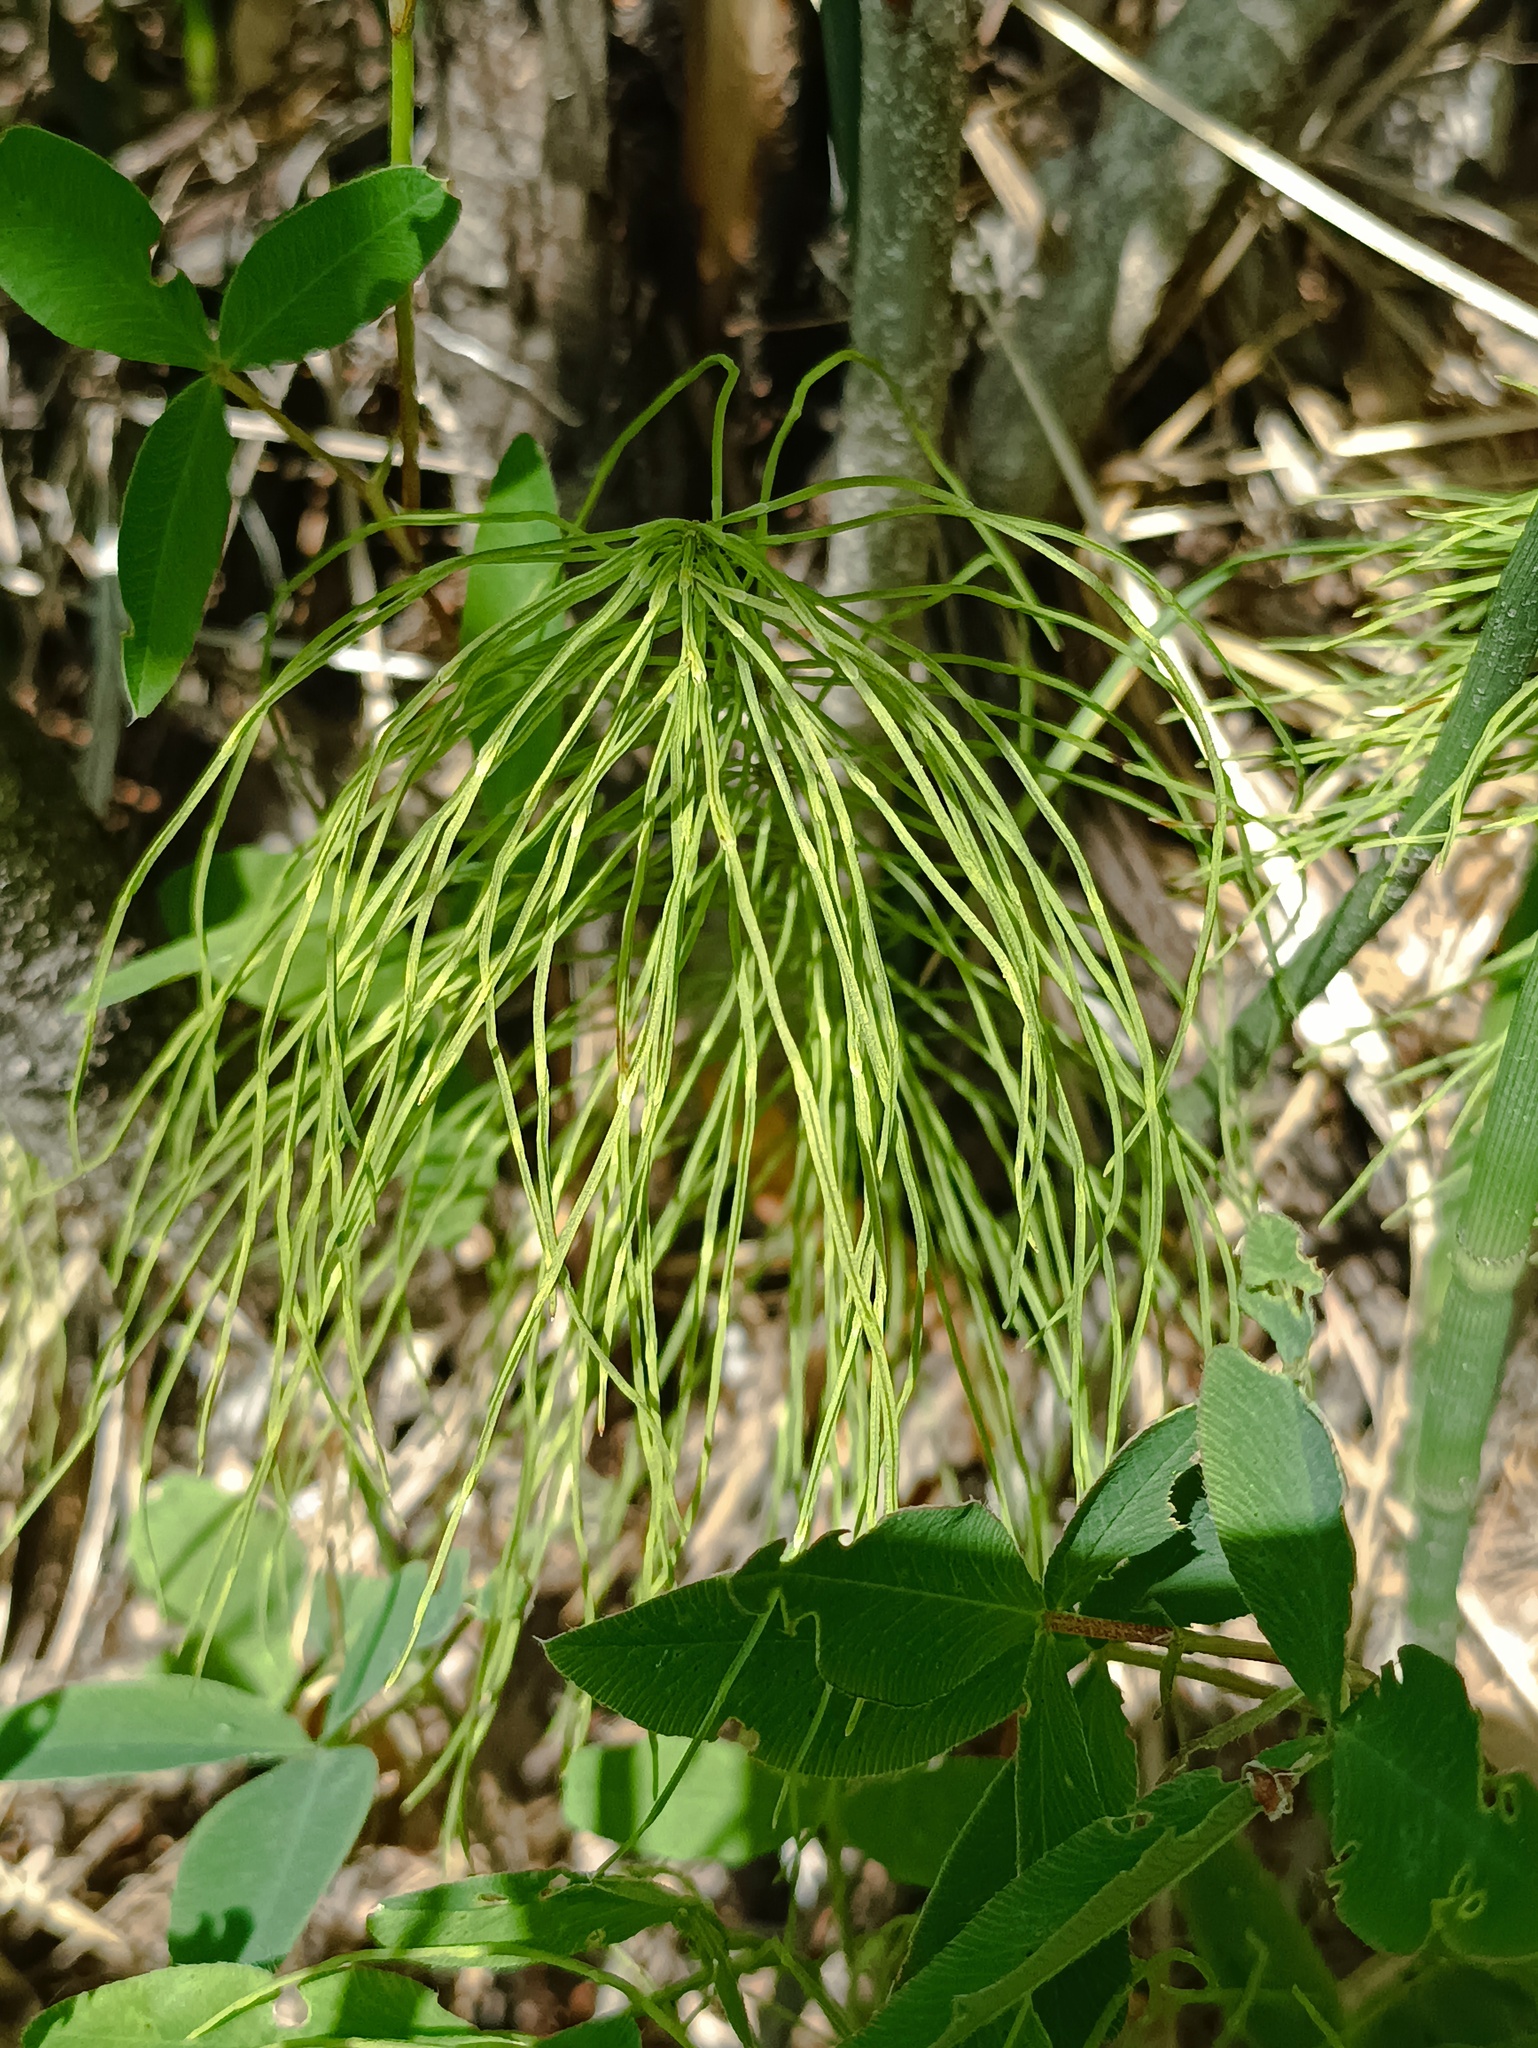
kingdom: Plantae
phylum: Tracheophyta
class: Polypodiopsida
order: Equisetales
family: Equisetaceae
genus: Equisetum
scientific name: Equisetum pratense
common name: Meadow horsetail
